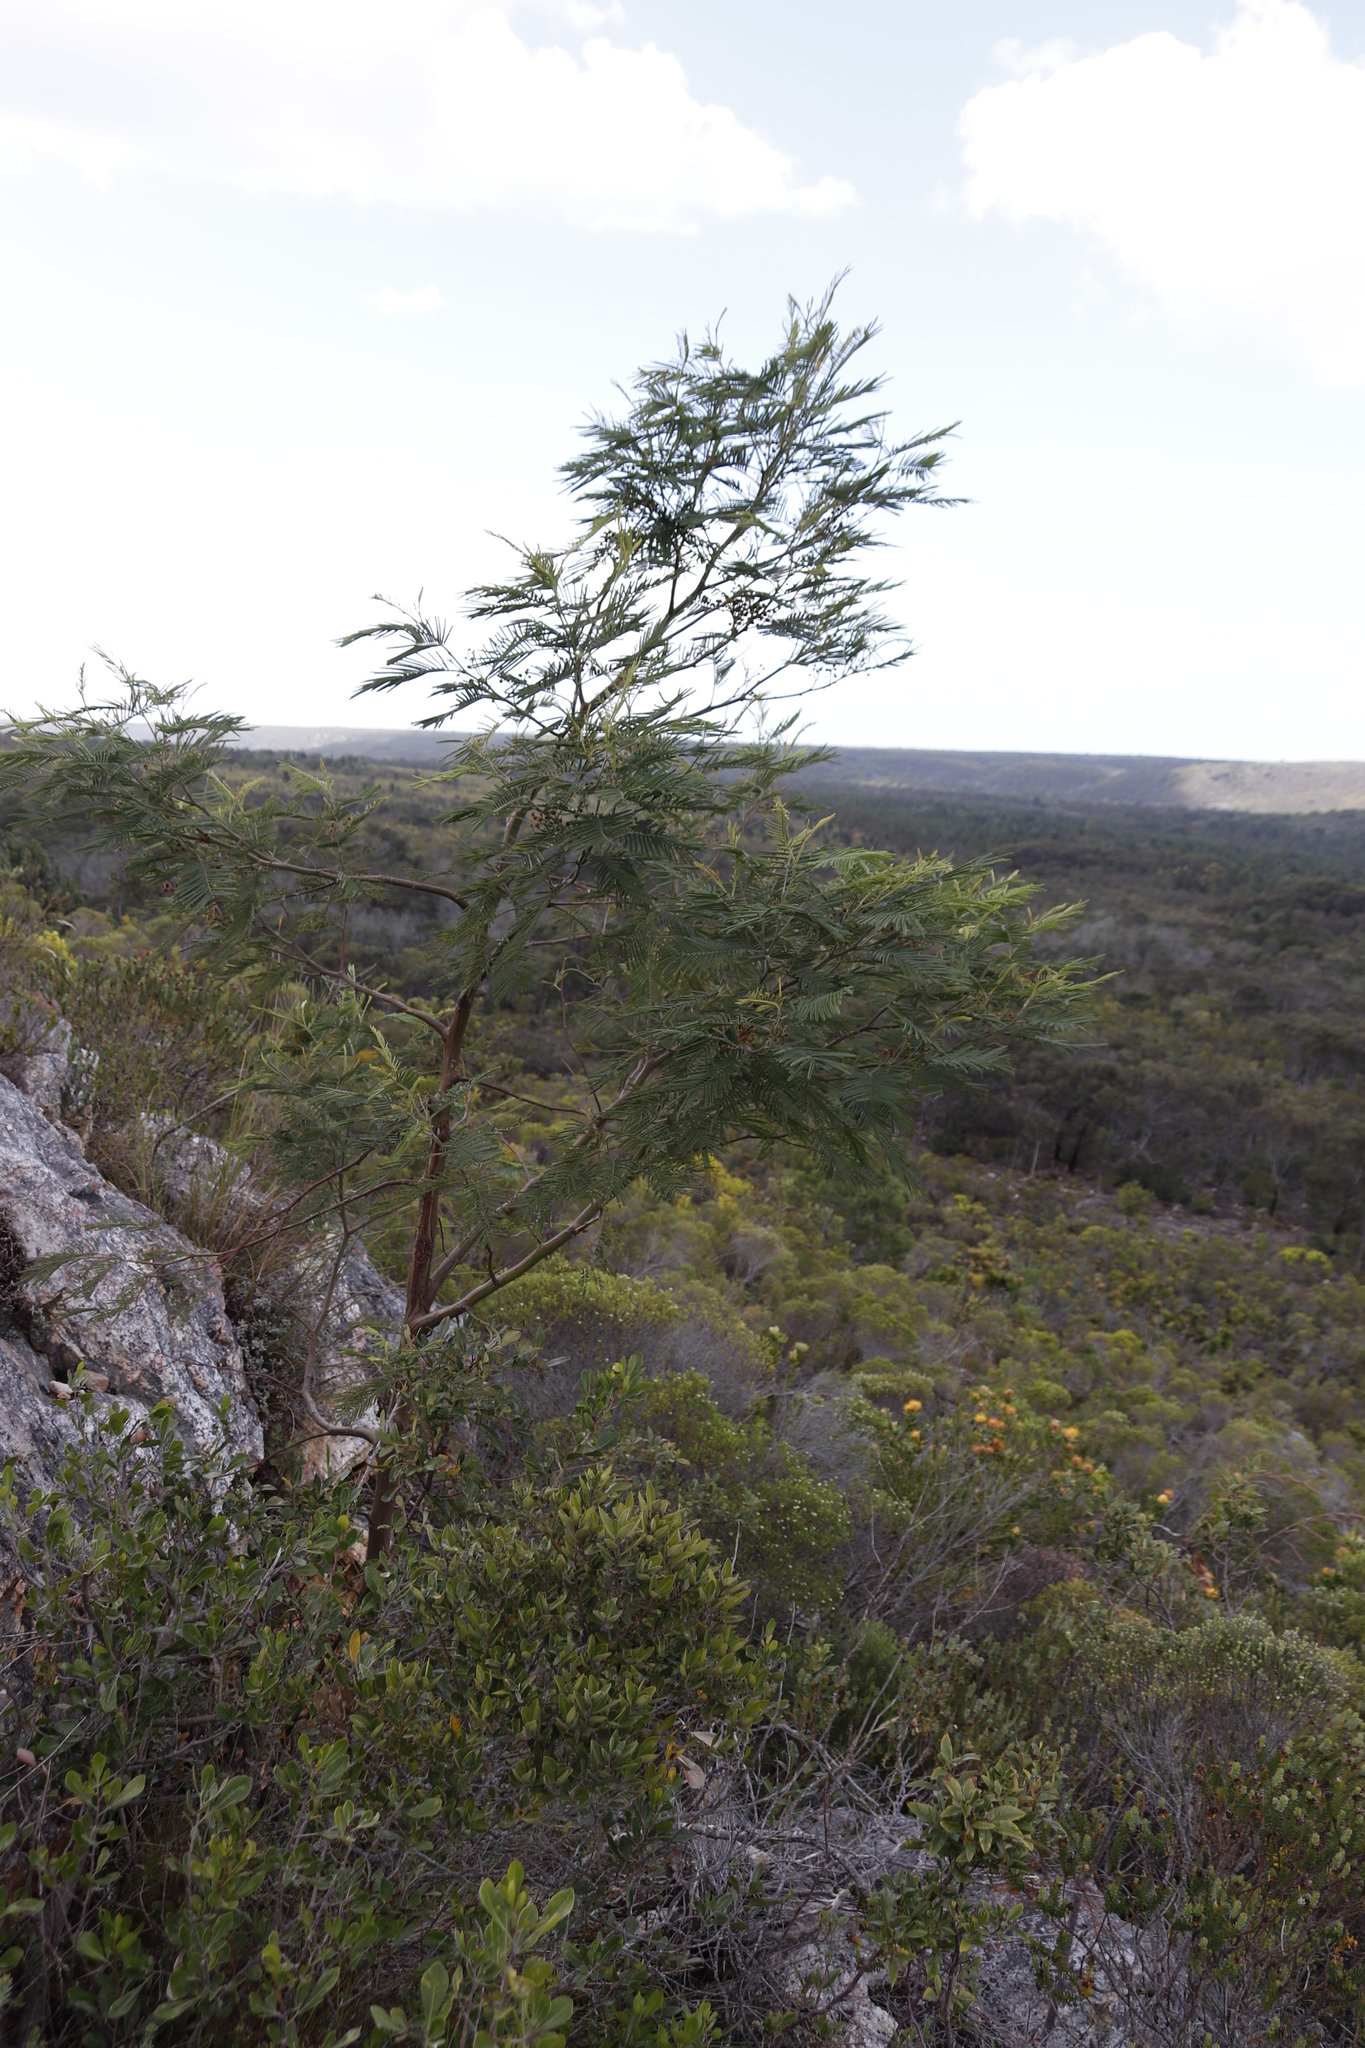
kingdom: Plantae
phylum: Tracheophyta
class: Magnoliopsida
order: Fabales
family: Fabaceae
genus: Acacia
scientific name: Acacia mearnsii
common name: Black wattle
